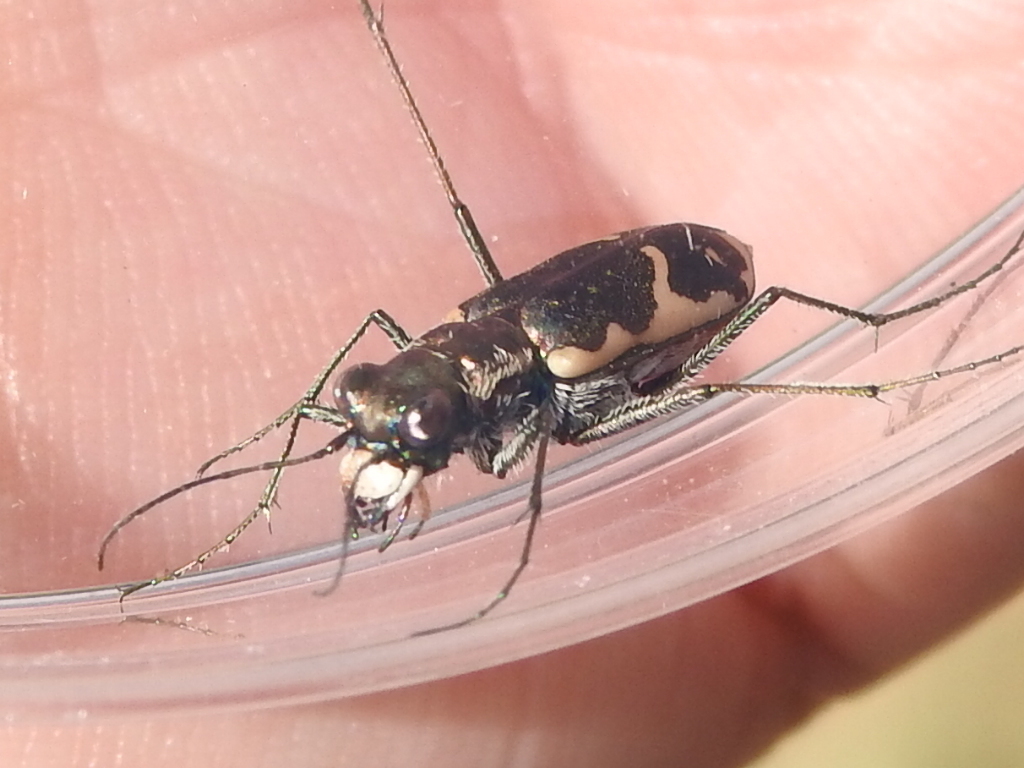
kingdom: Animalia
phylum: Arthropoda
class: Insecta
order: Coleoptera
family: Carabidae
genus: Cicindela
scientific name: Cicindela schauppii
